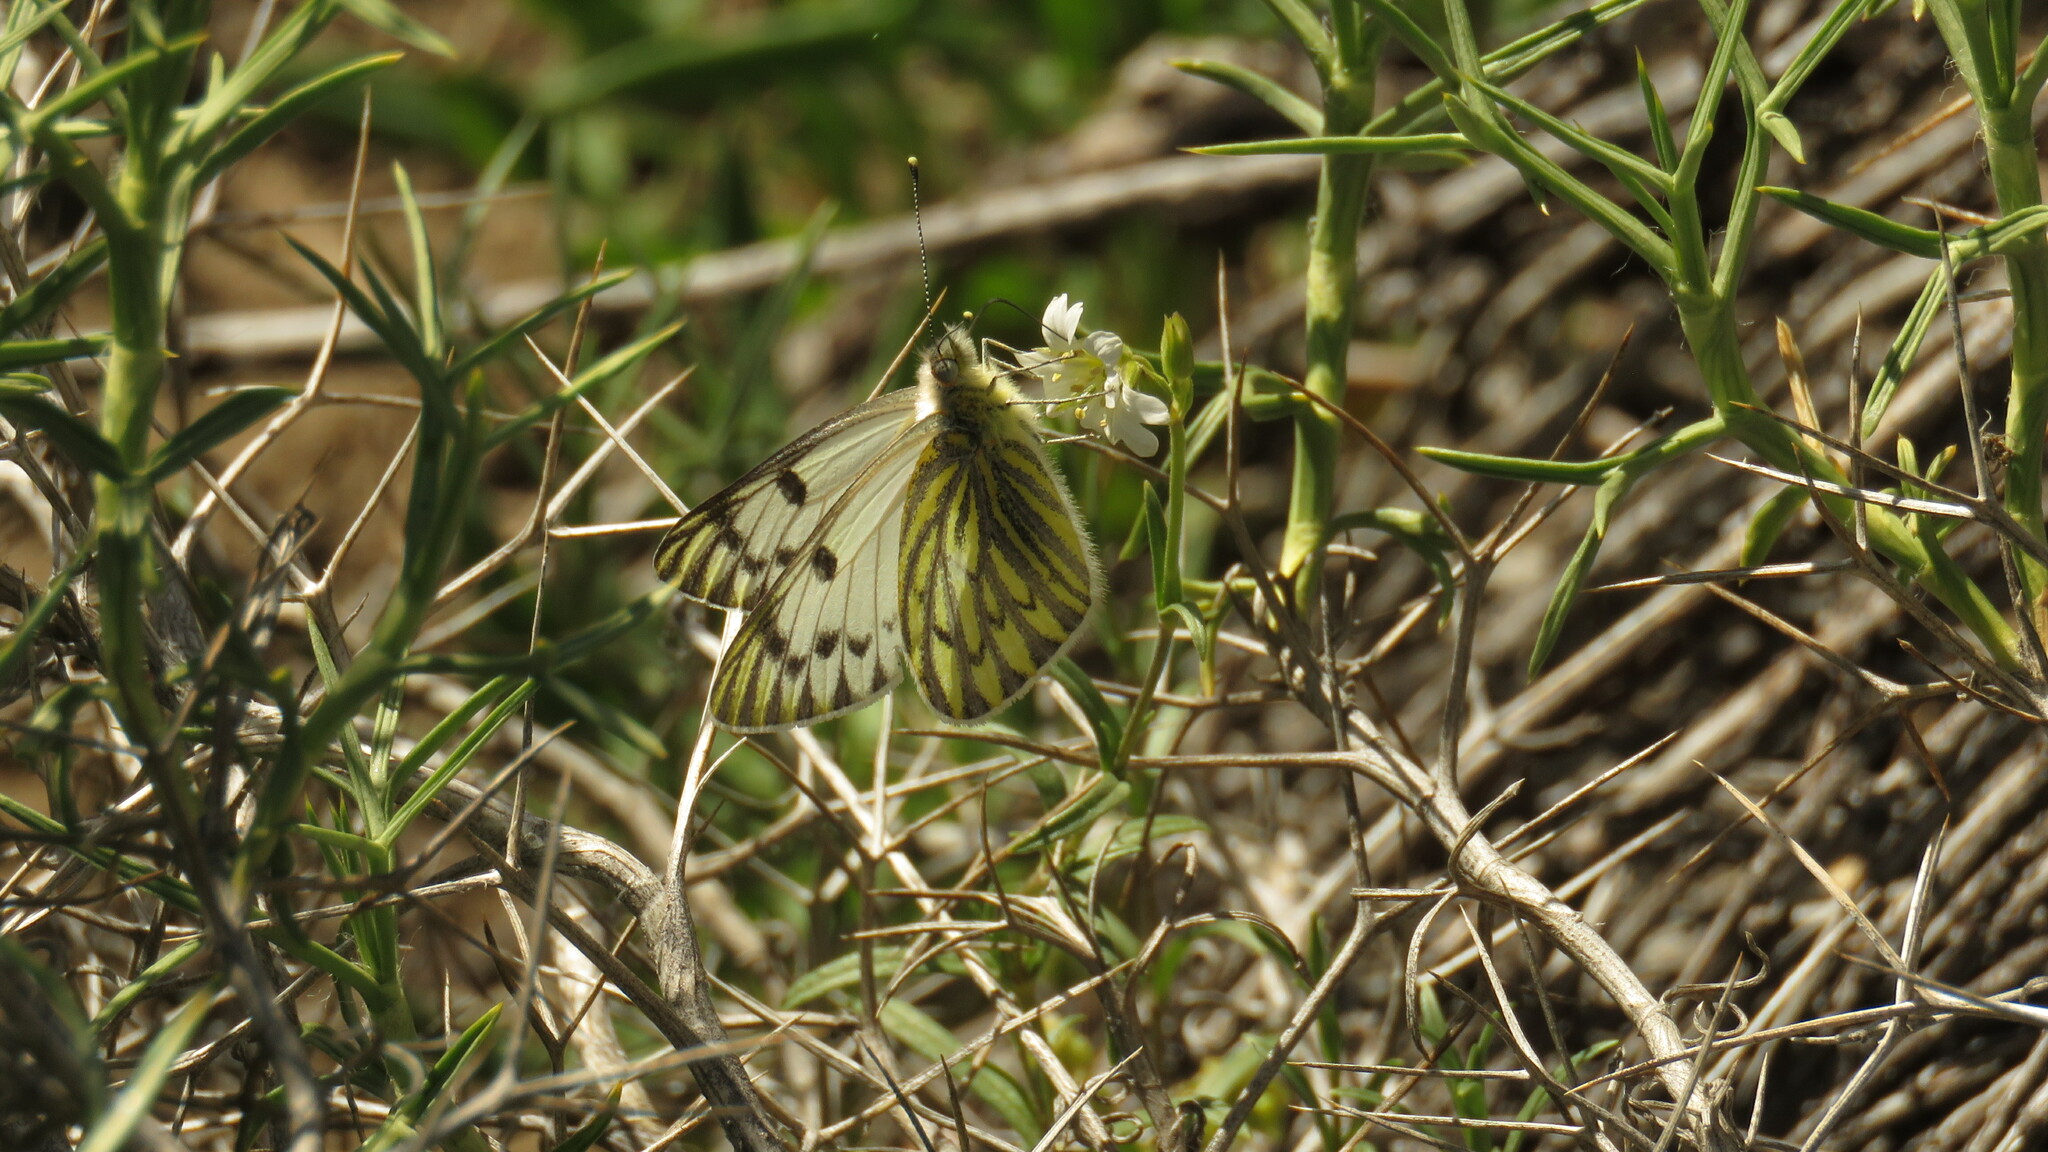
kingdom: Animalia
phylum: Arthropoda
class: Insecta
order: Lepidoptera
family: Pieridae
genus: Tatochila
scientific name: Tatochila mercedis
